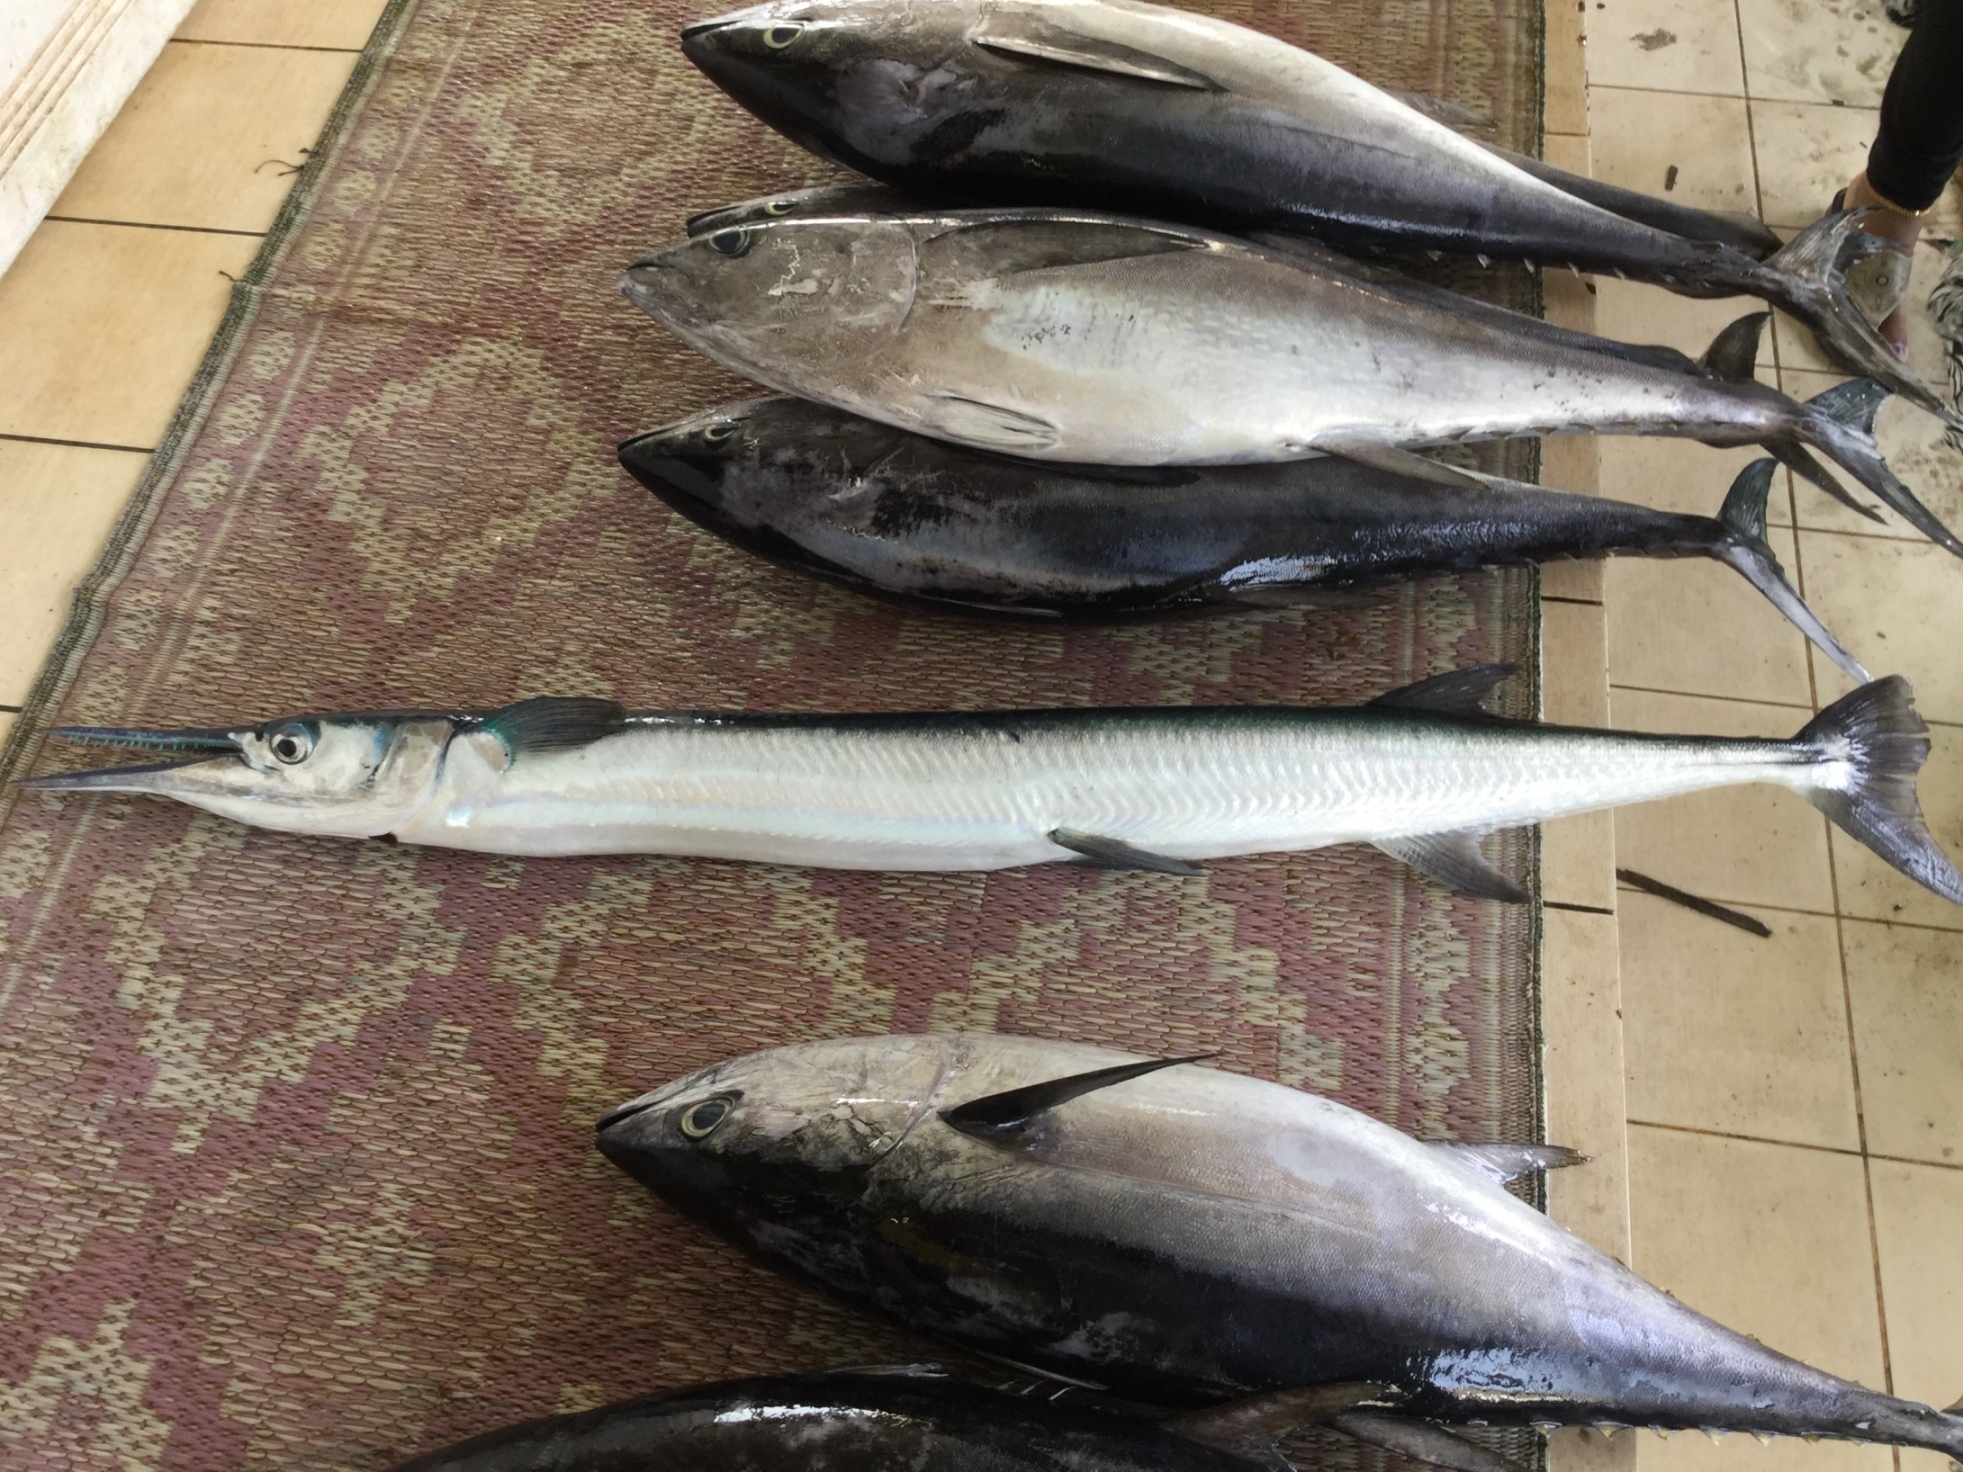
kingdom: Animalia
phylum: Chordata
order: Beloniformes
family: Belonidae
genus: Tylosurus
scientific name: Tylosurus crocodilus
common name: Houndfish
